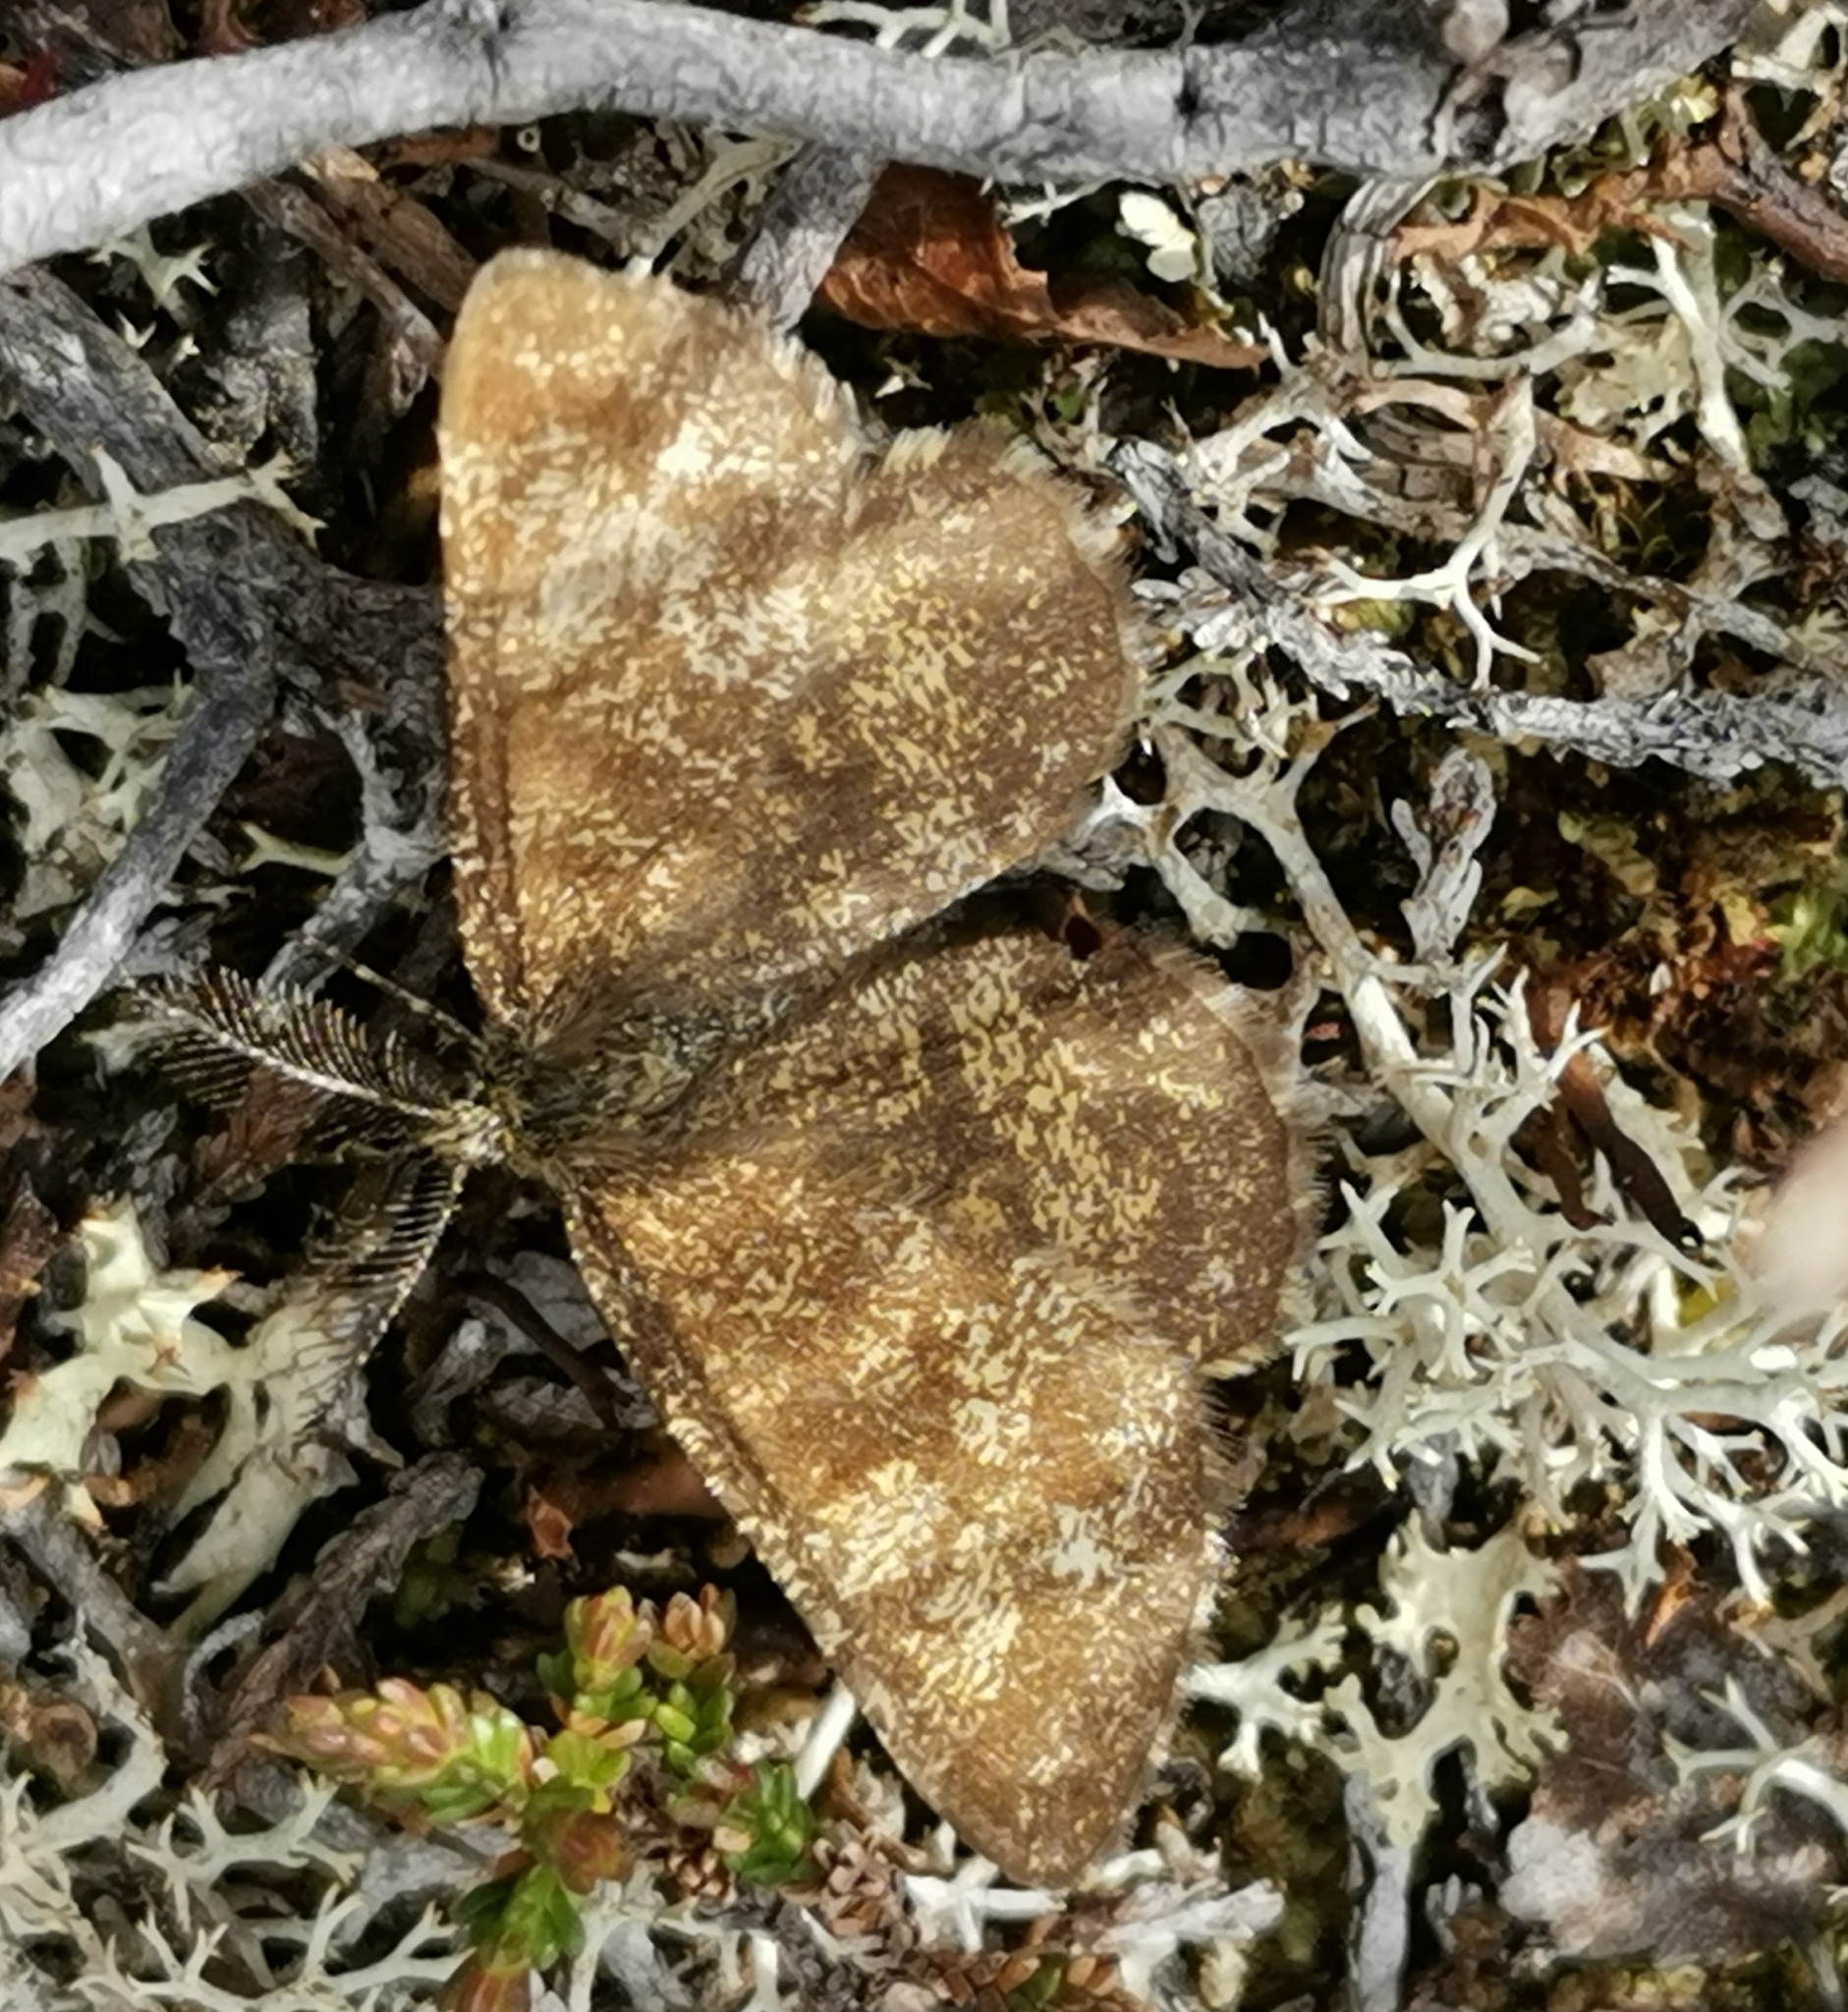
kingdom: Animalia
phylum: Arthropoda
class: Insecta
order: Lepidoptera
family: Geometridae
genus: Ematurga
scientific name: Ematurga atomaria
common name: Common heath
